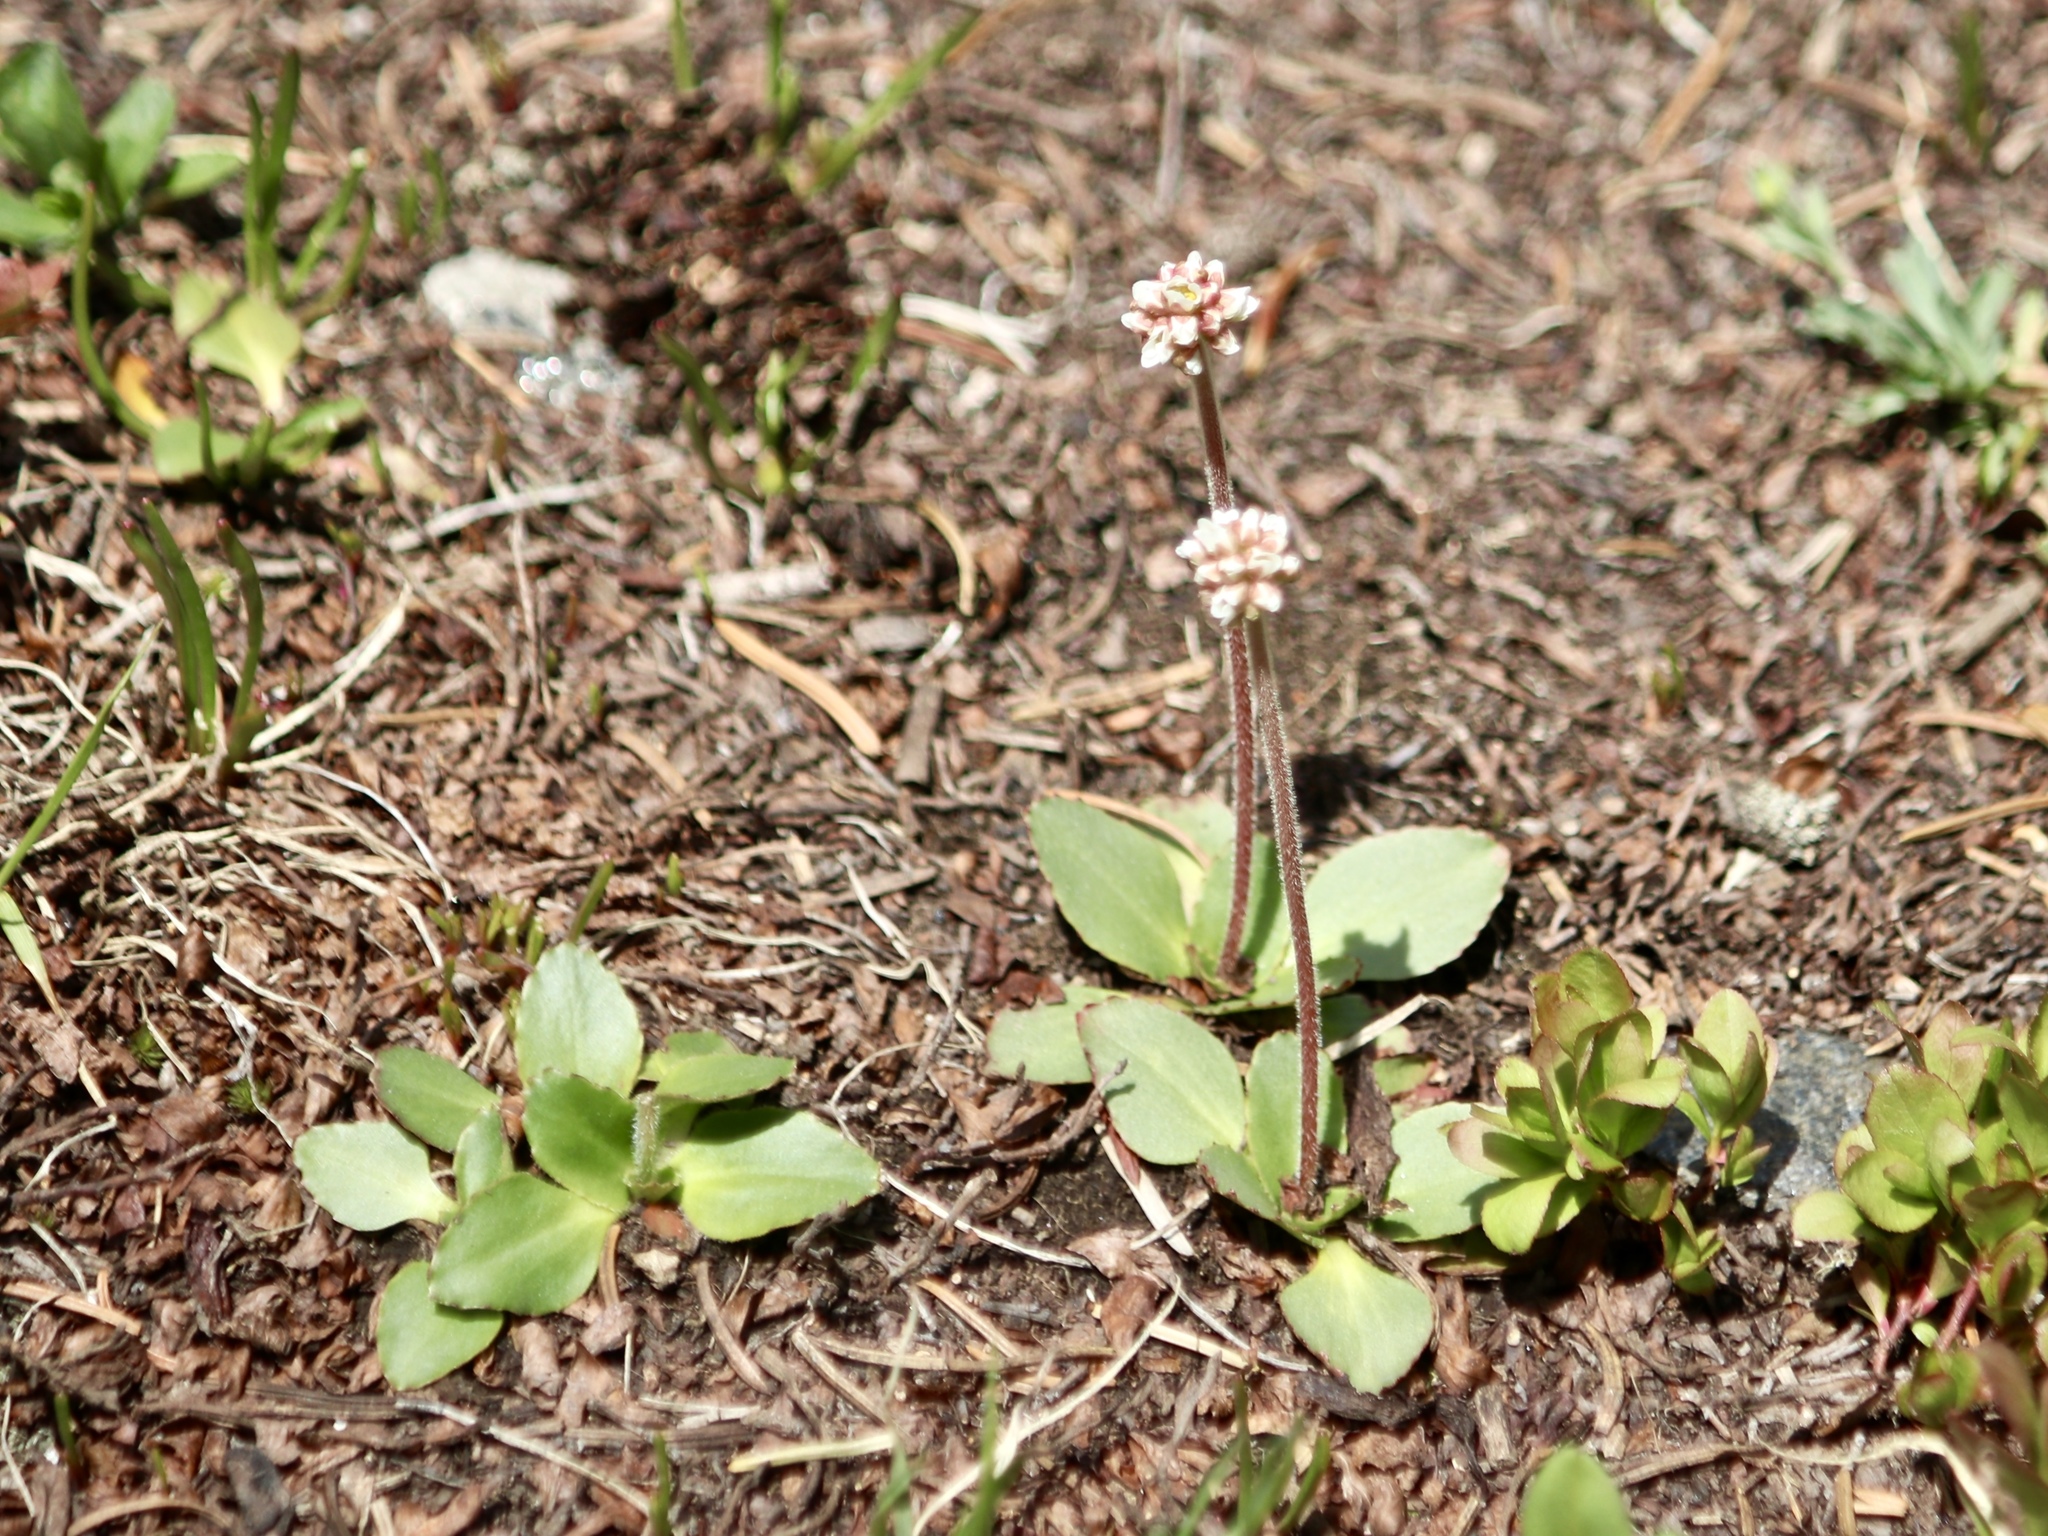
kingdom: Plantae
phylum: Tracheophyta
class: Magnoliopsida
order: Saxifragales
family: Saxifragaceae
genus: Micranthes
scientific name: Micranthes rhomboidea
